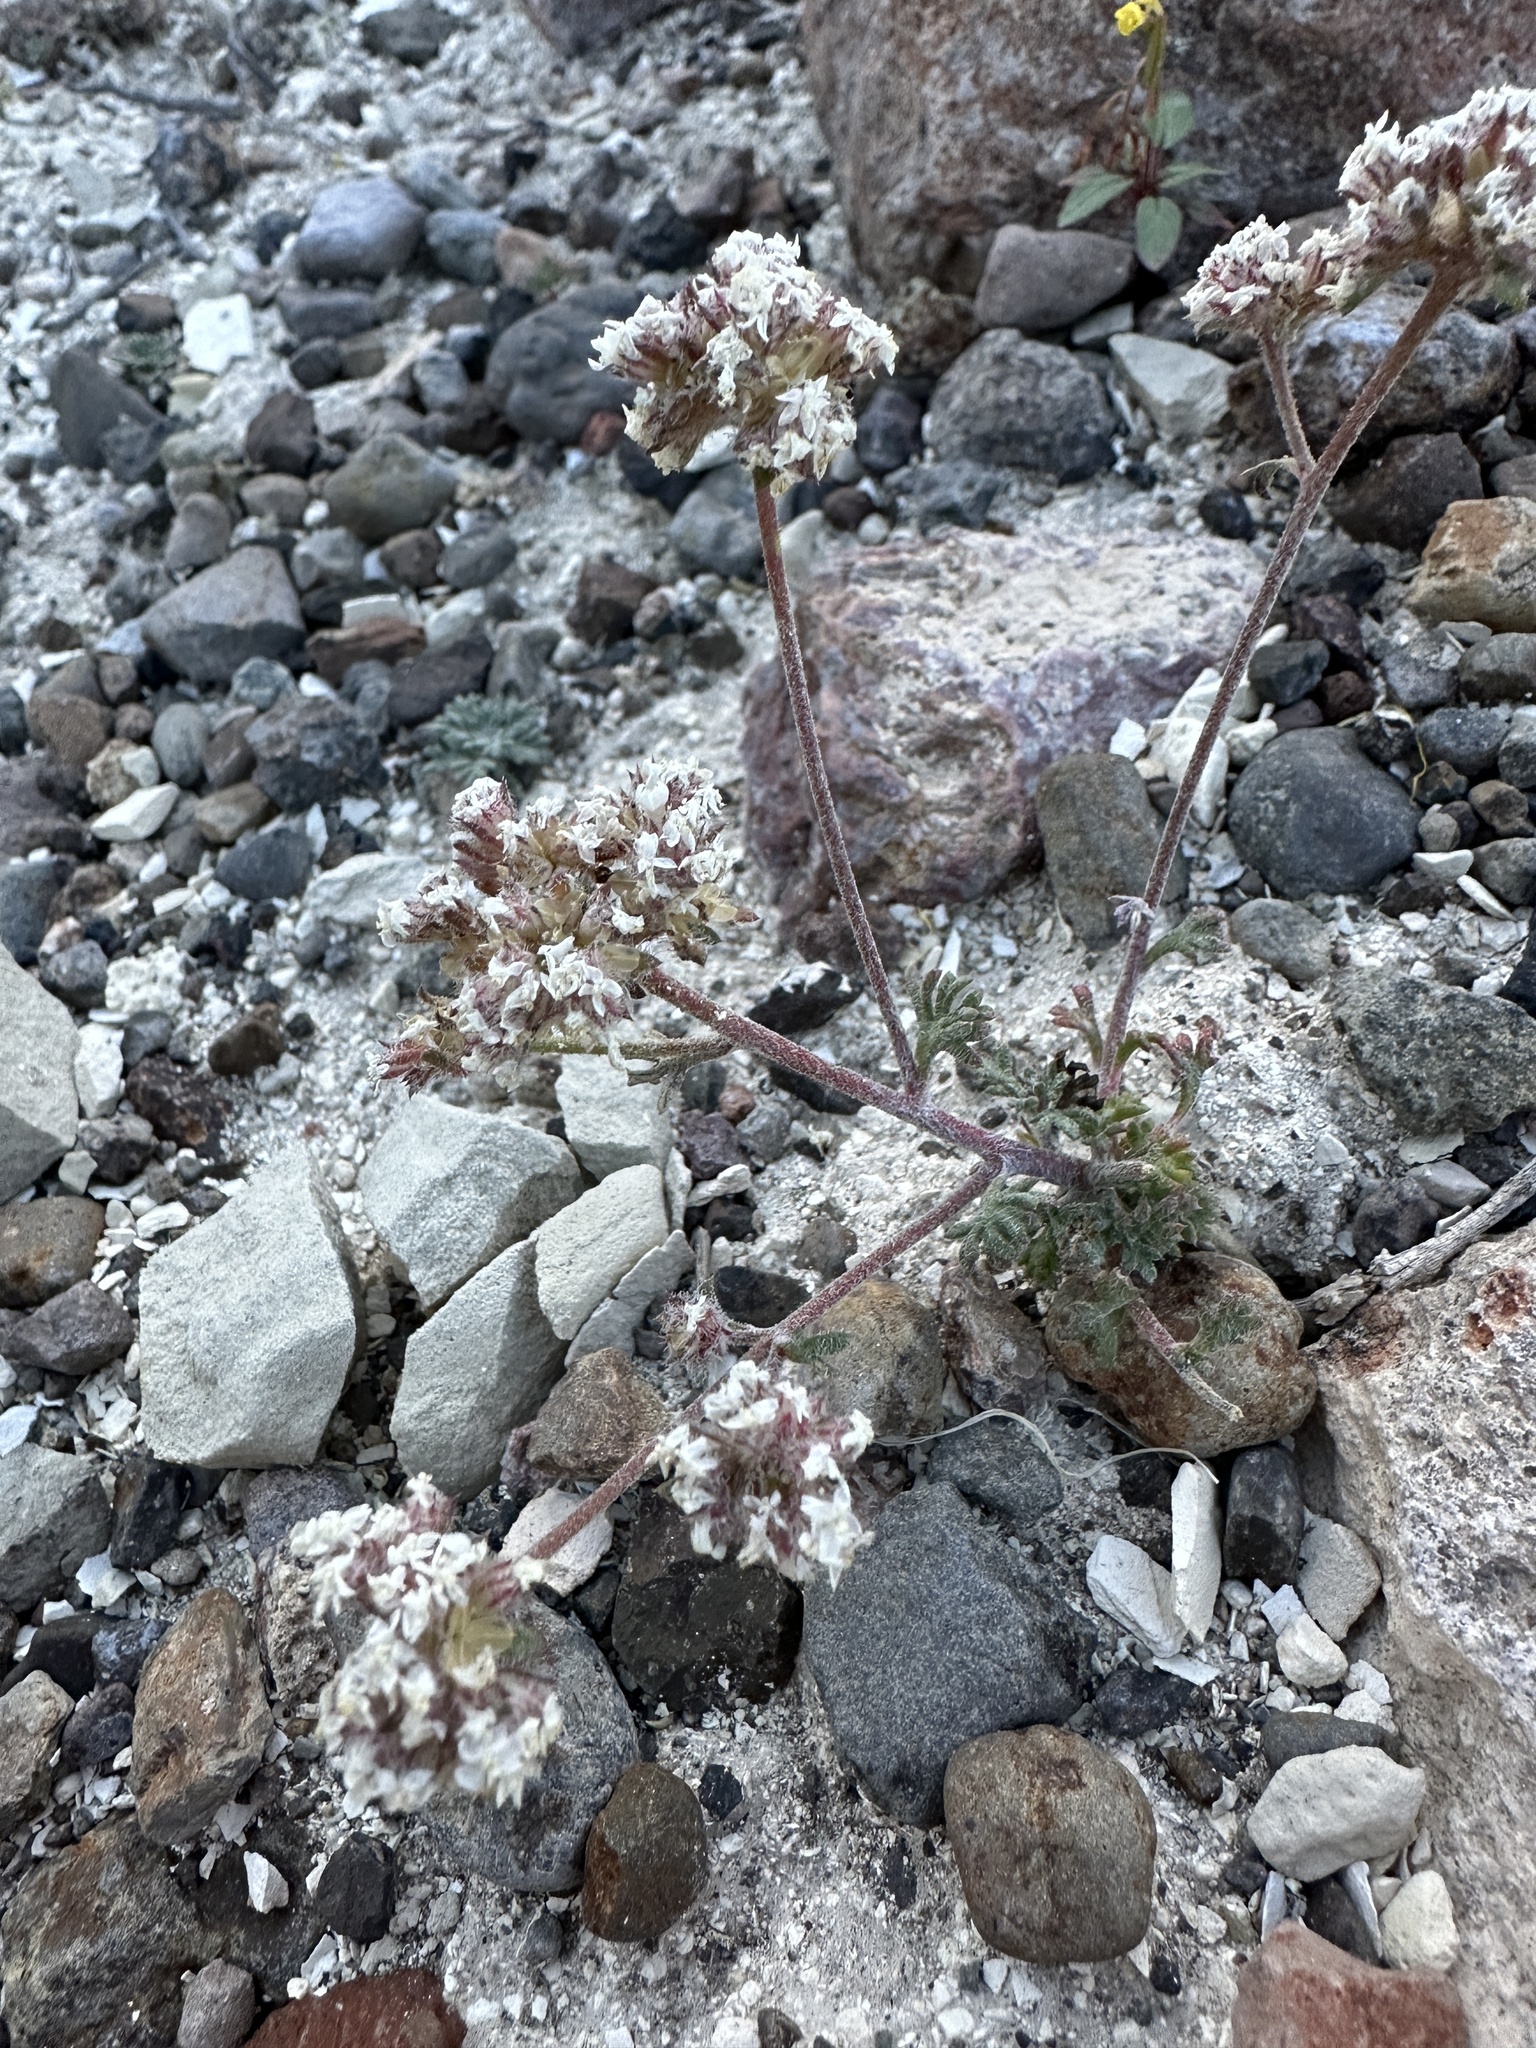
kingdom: Plantae
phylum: Tracheophyta
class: Magnoliopsida
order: Ericales
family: Polemoniaceae
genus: Ipomopsis
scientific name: Ipomopsis congesta
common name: Ball-head gilia
